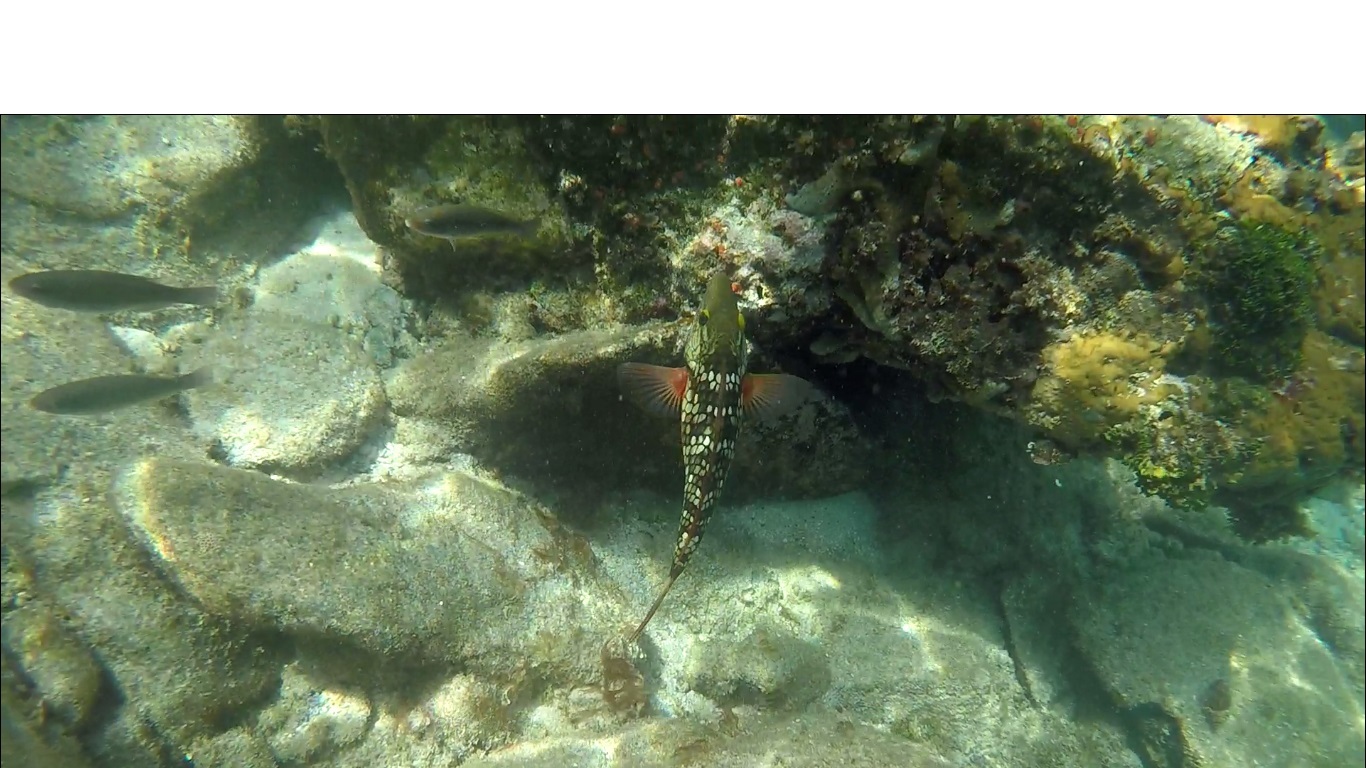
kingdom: Animalia
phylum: Chordata
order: Perciformes
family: Scaridae
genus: Sparisoma
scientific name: Sparisoma viride
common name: Stoplight parrotfish
